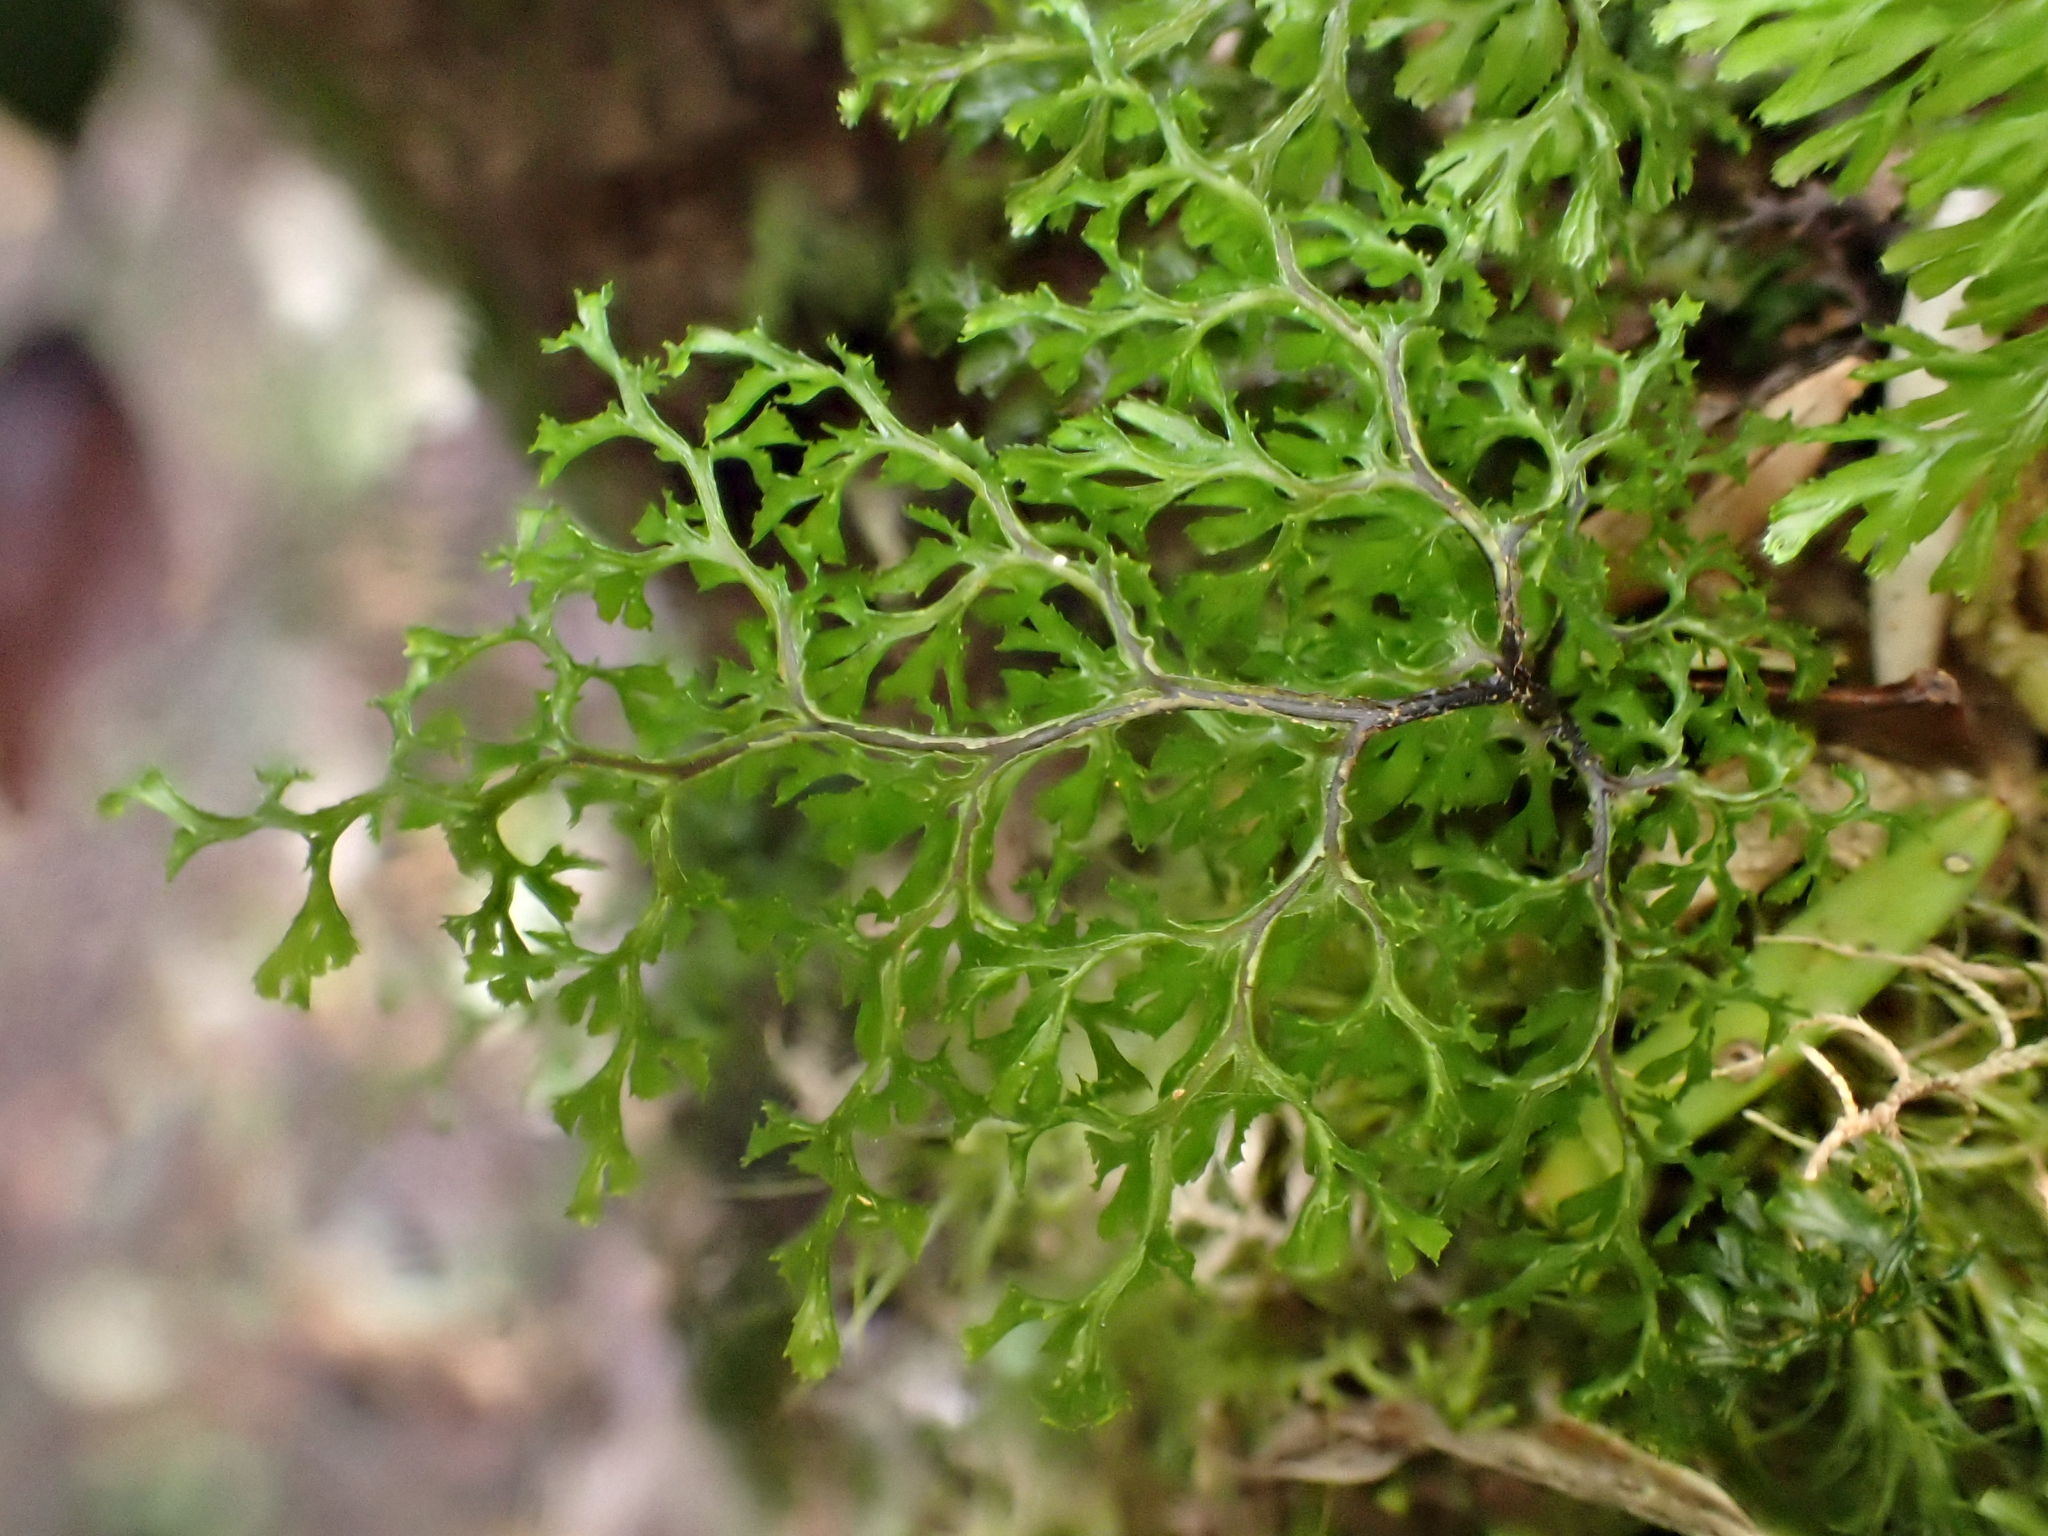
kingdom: Plantae
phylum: Tracheophyta
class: Polypodiopsida
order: Hymenophyllales
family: Hymenophyllaceae
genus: Hymenophyllum
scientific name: Hymenophyllum multifidum
